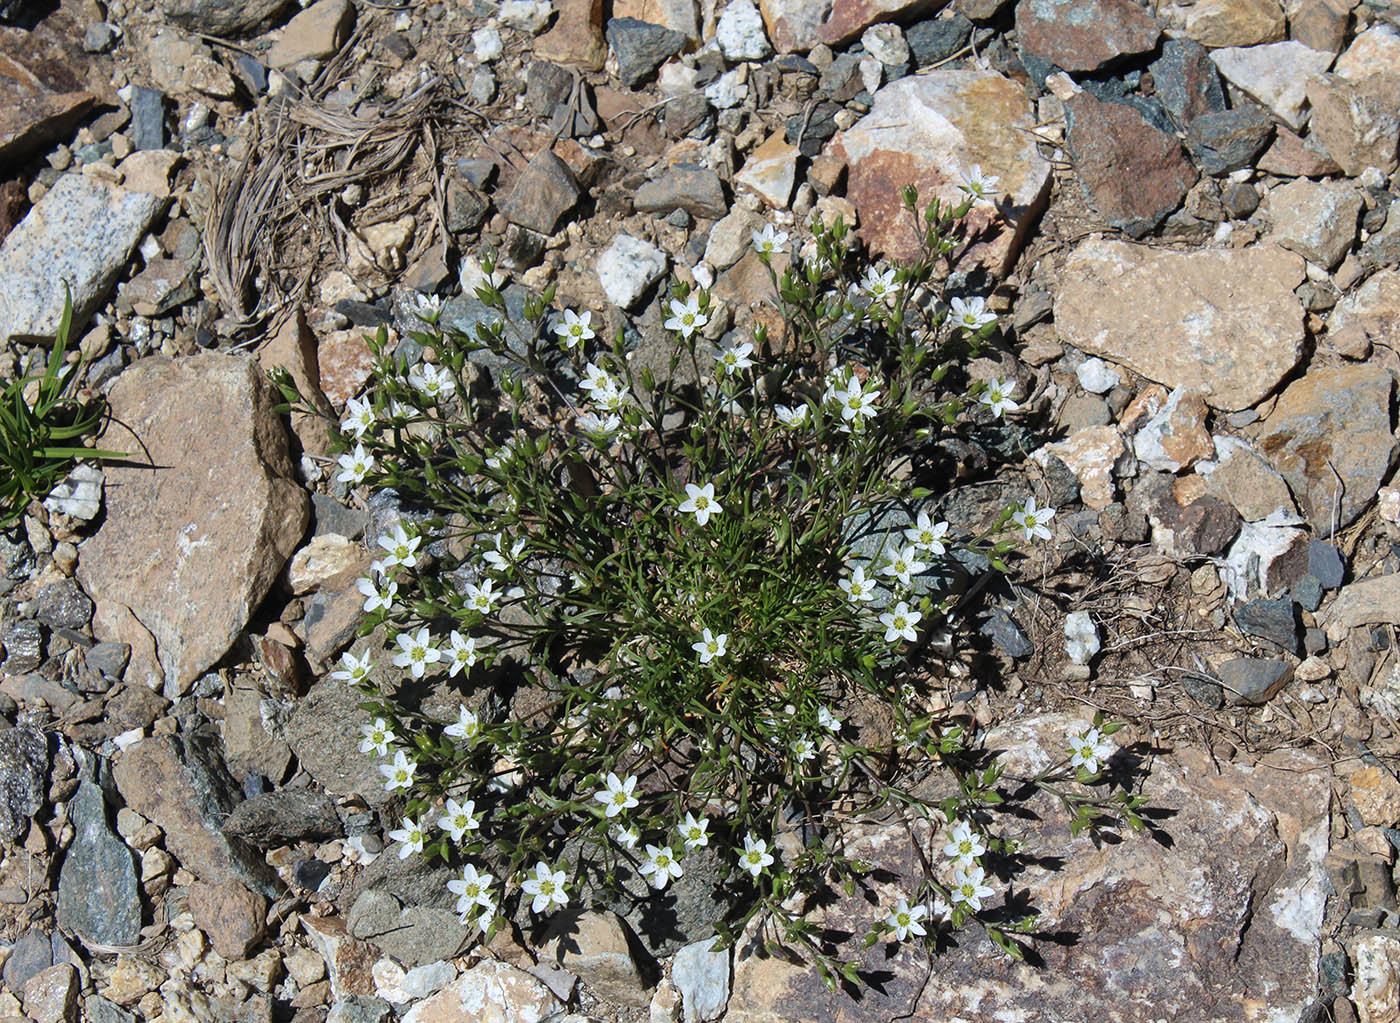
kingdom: Plantae
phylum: Tracheophyta
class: Magnoliopsida
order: Caryophyllales
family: Caryophyllaceae
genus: Minuartia
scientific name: Minuartia hirsuta
